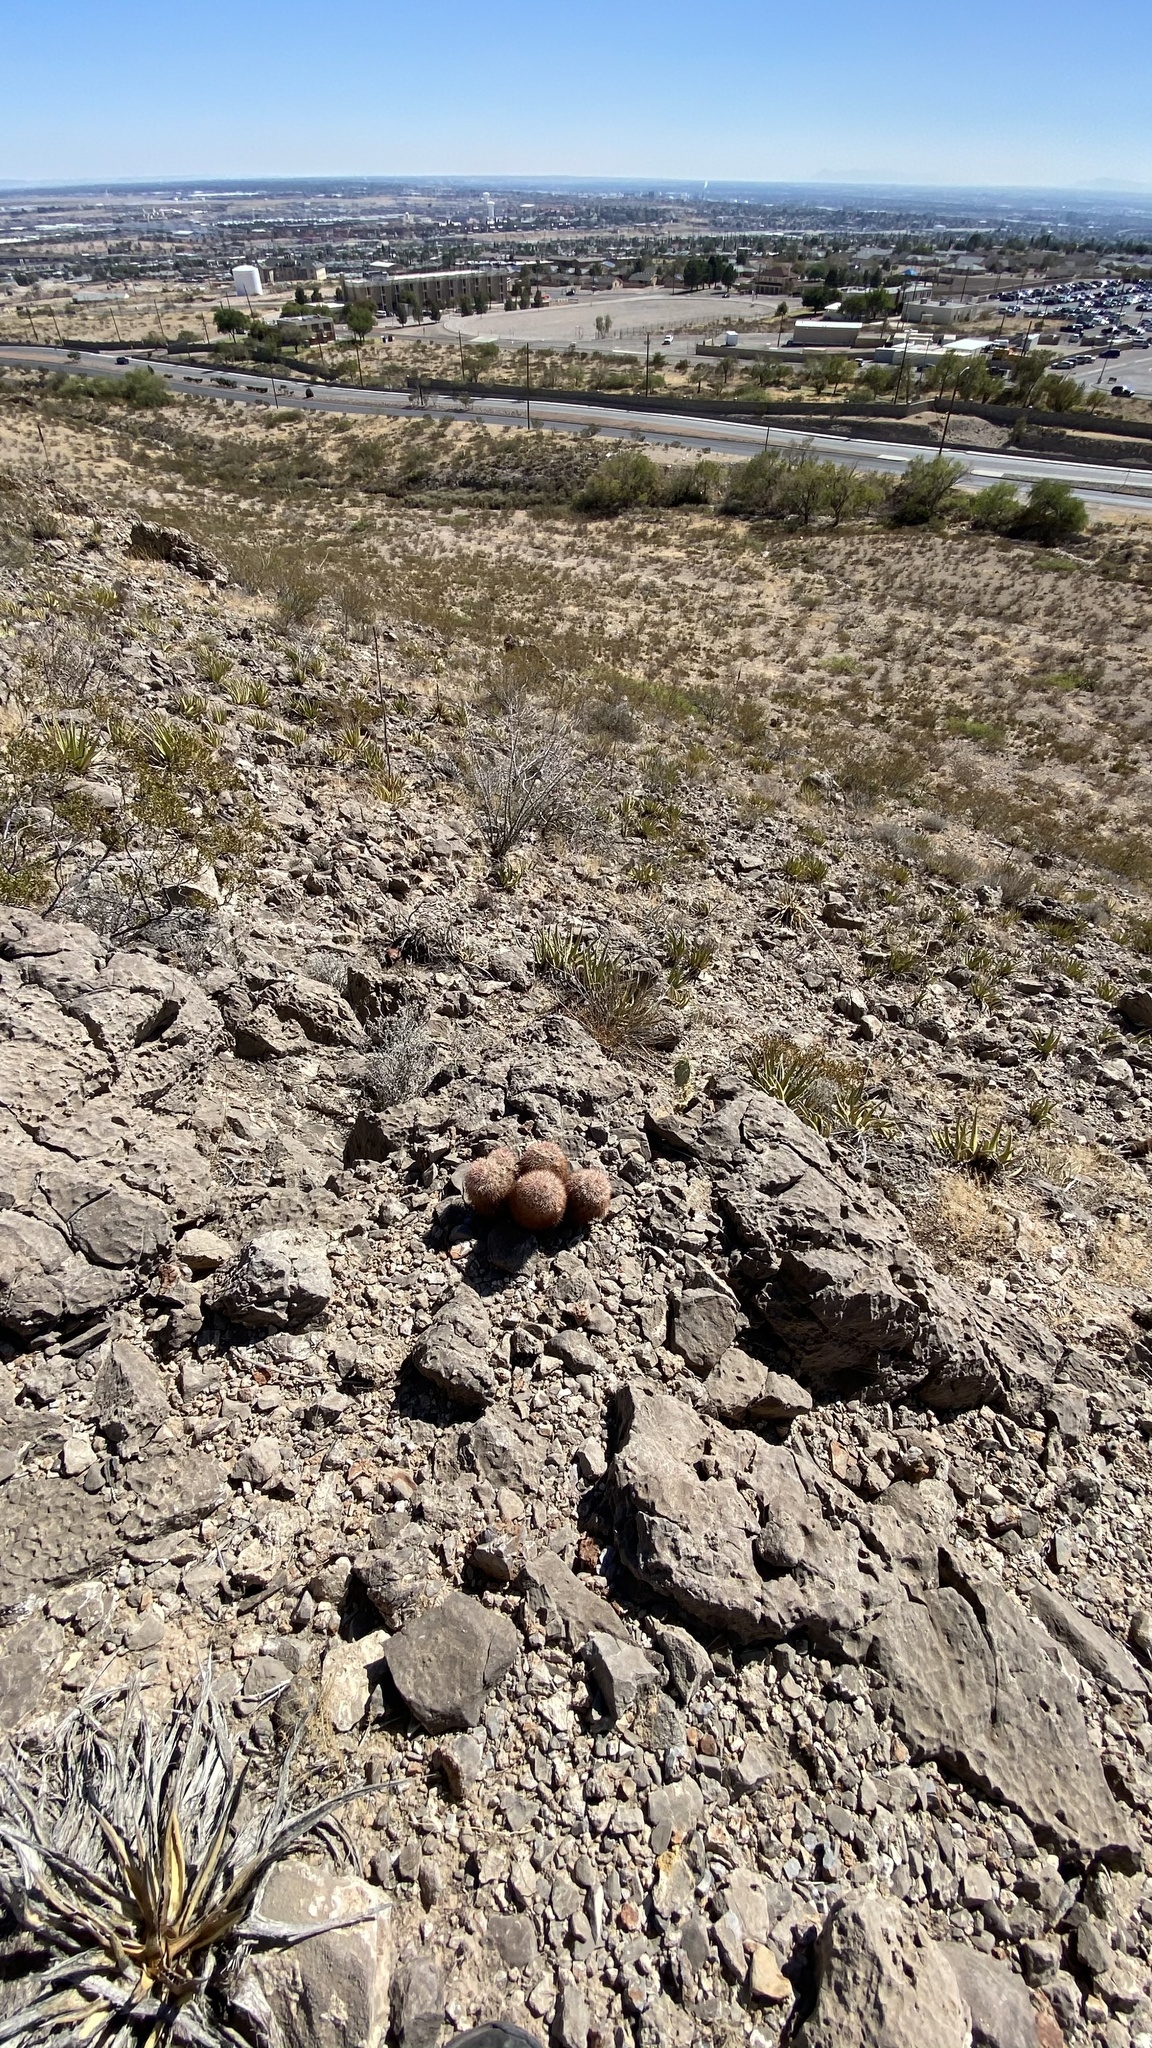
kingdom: Plantae
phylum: Tracheophyta
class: Magnoliopsida
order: Caryophyllales
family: Cactaceae
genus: Echinocereus
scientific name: Echinocereus dasyacanthus
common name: Spiny hedgehog cactus
